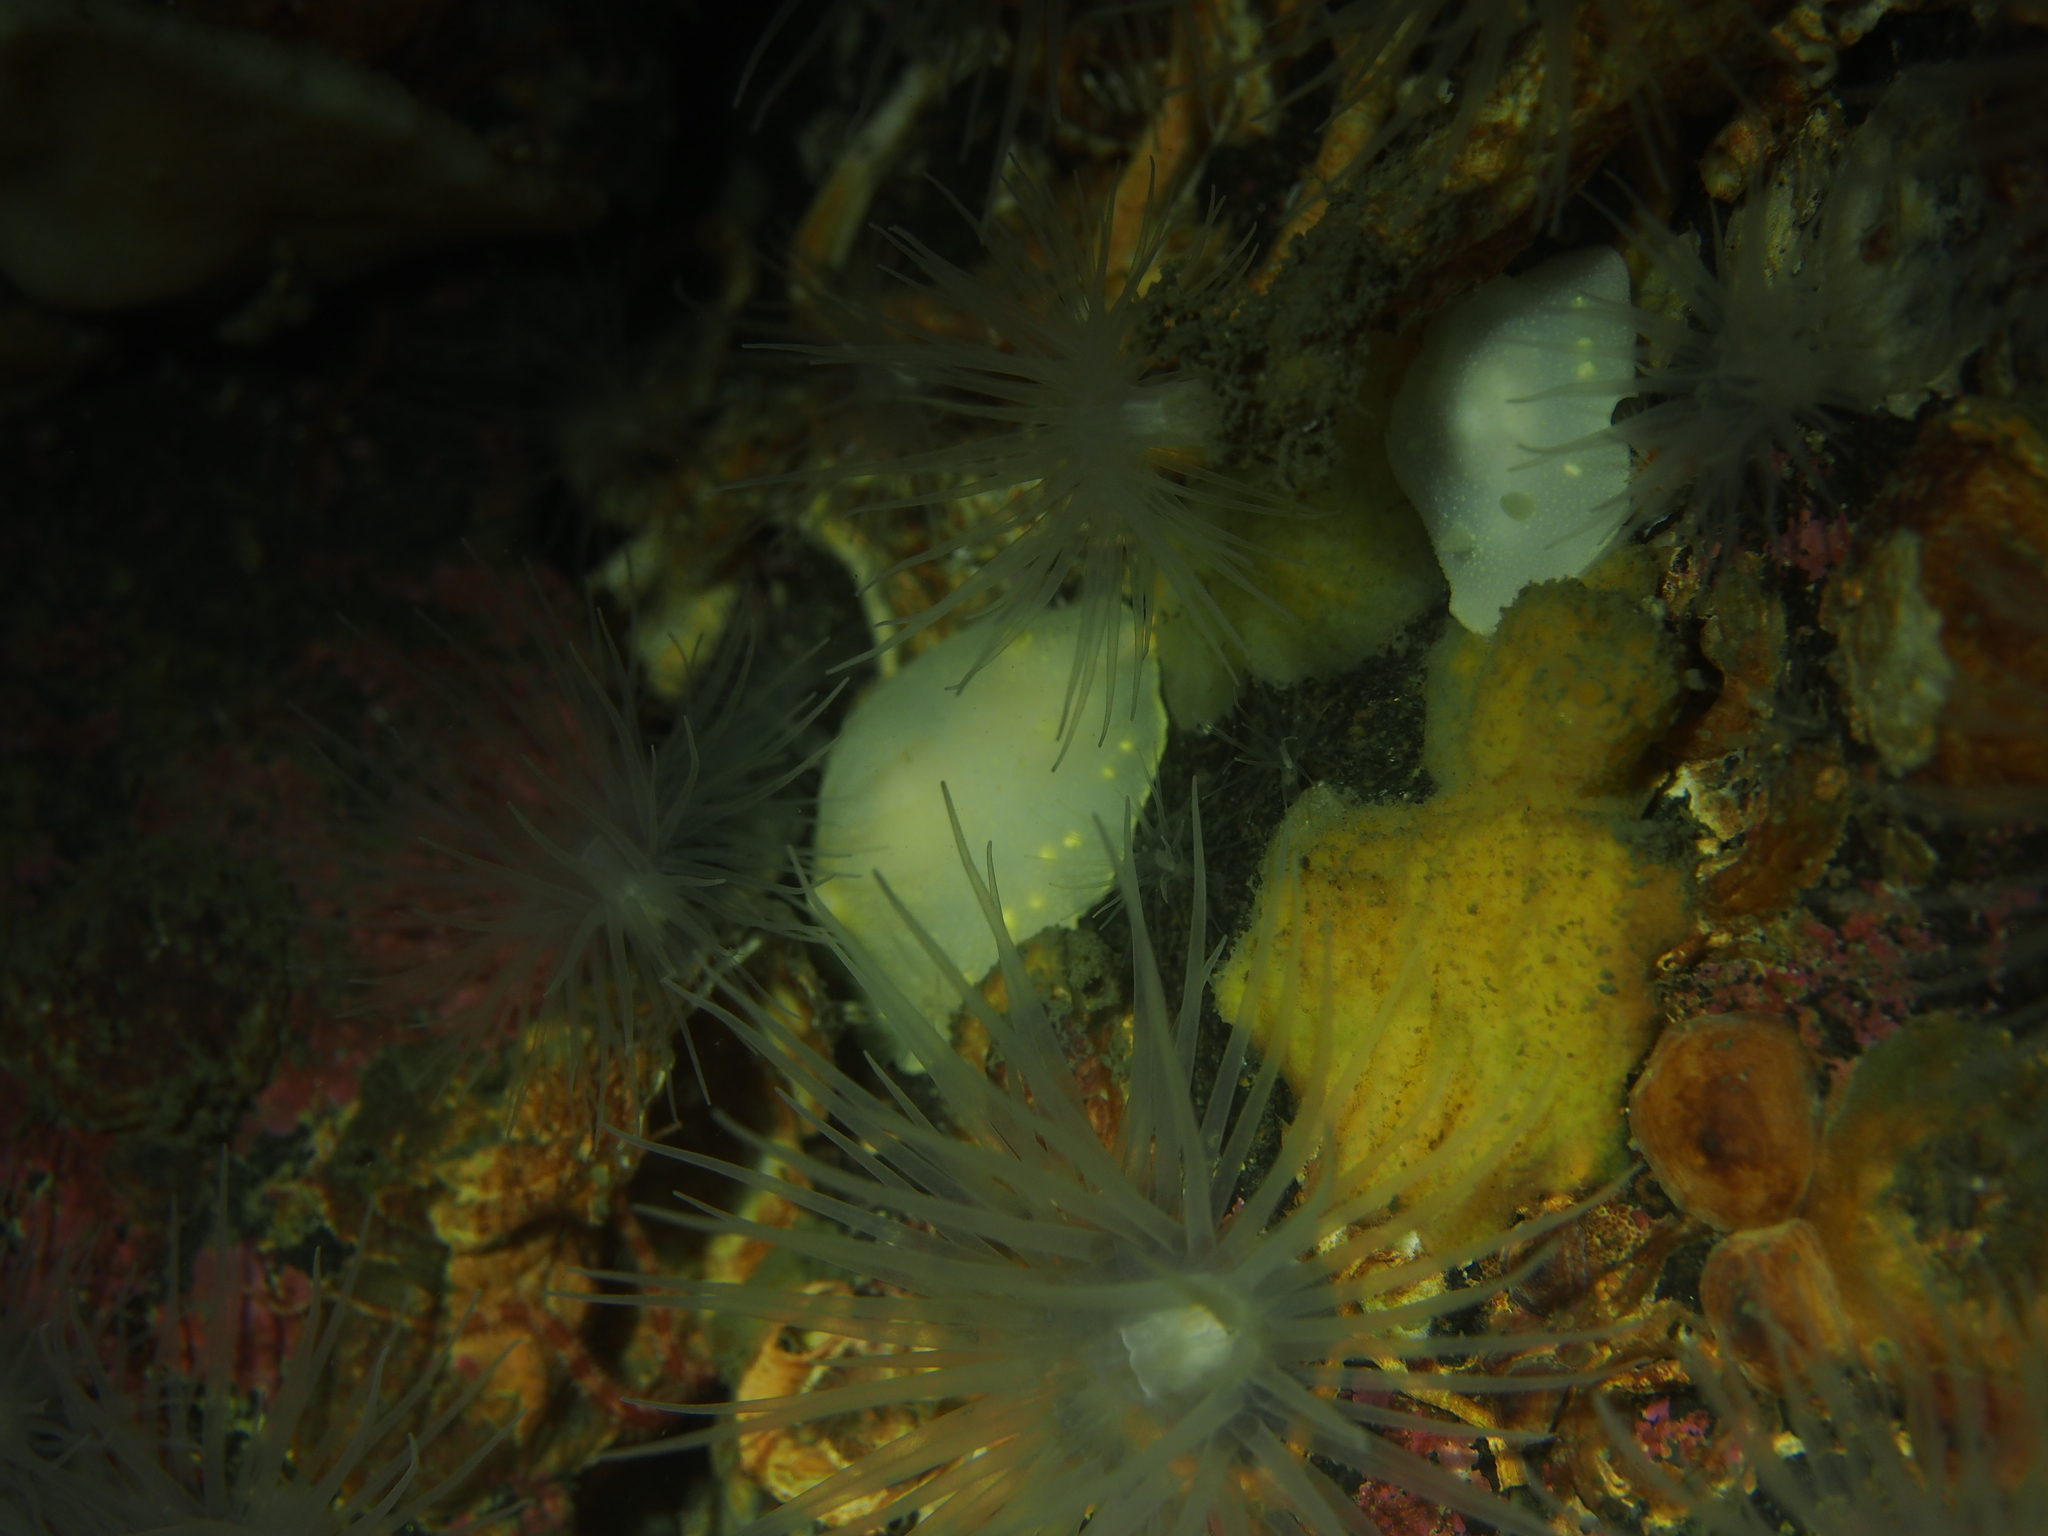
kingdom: Animalia
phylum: Mollusca
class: Gastropoda
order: Nudibranchia
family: Cadlinidae
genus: Cadlina
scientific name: Cadlina laevis
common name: White atlantic cadlina
